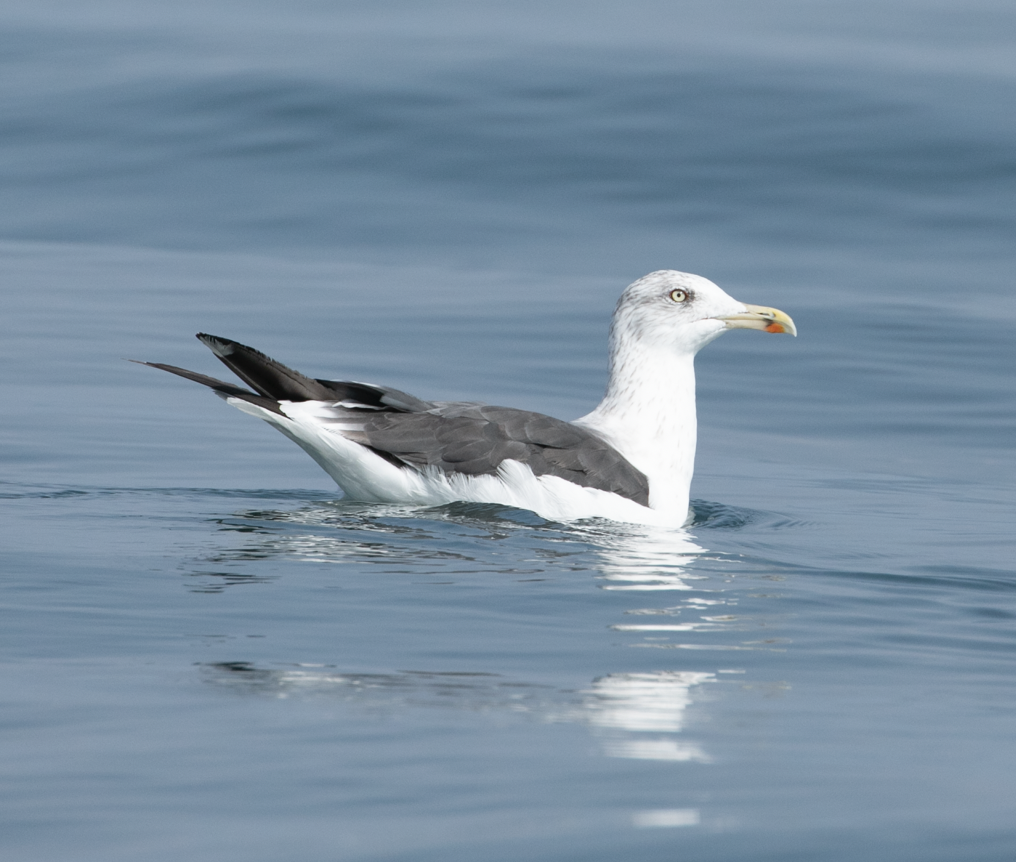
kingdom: Animalia
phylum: Chordata
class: Aves
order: Charadriiformes
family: Laridae
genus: Larus
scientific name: Larus fuscus
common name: Lesser black-backed gull
